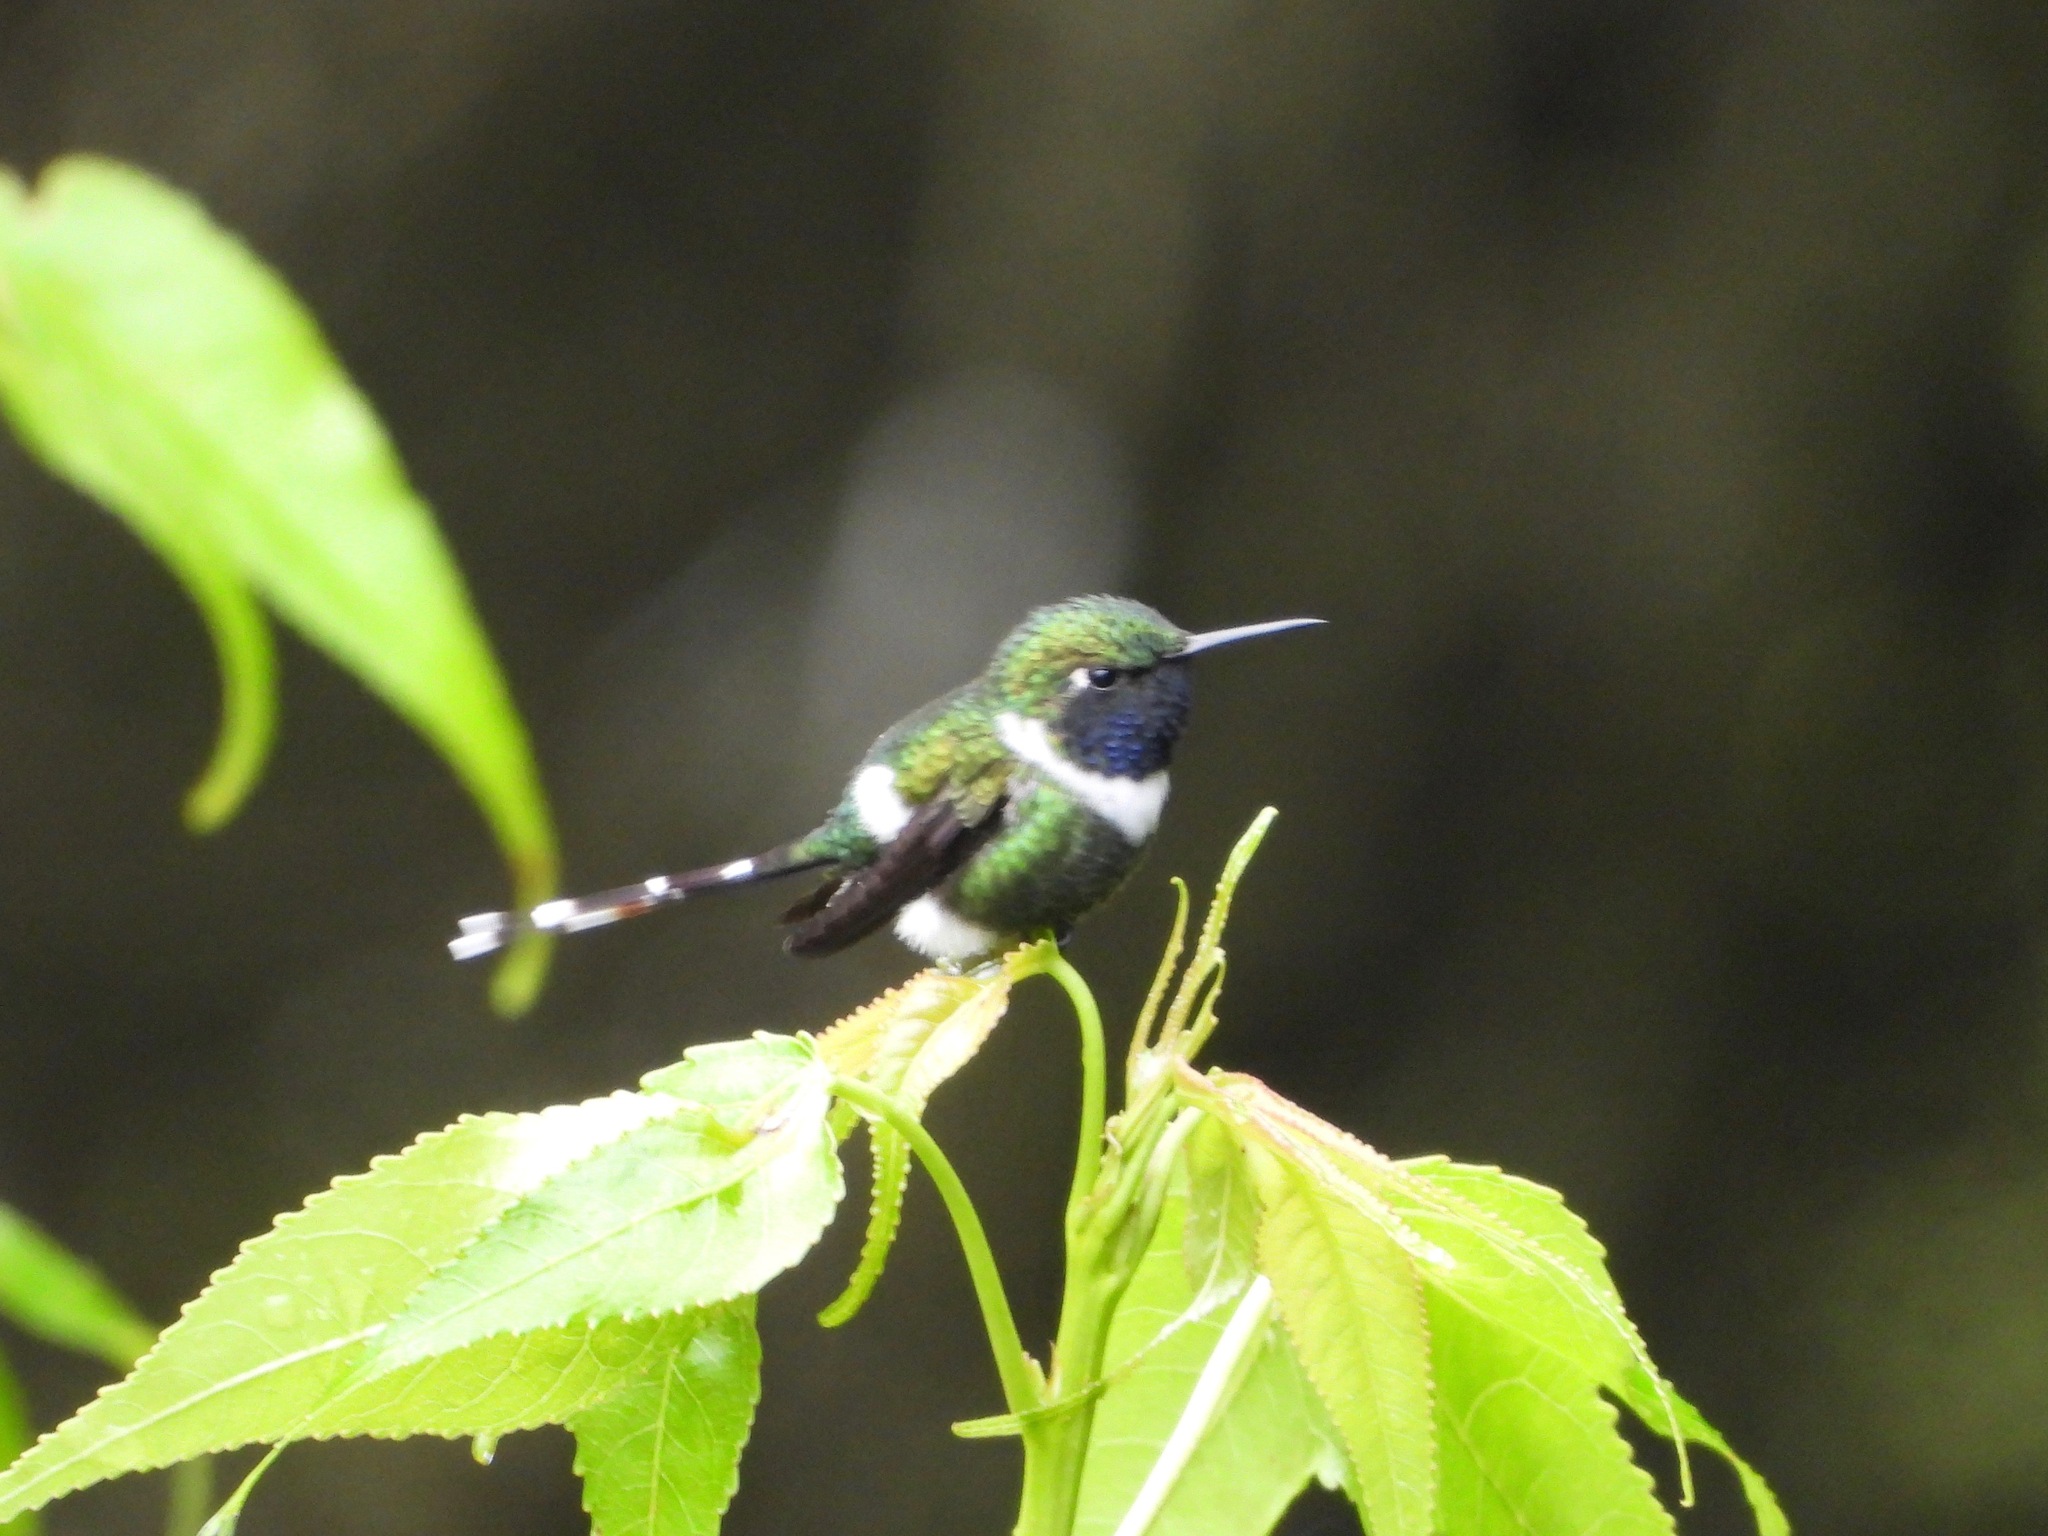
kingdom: Animalia
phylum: Chordata
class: Aves
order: Apodiformes
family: Trochilidae
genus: Tilmatura
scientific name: Tilmatura dupontii
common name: Sparkling-tailed woodstar
